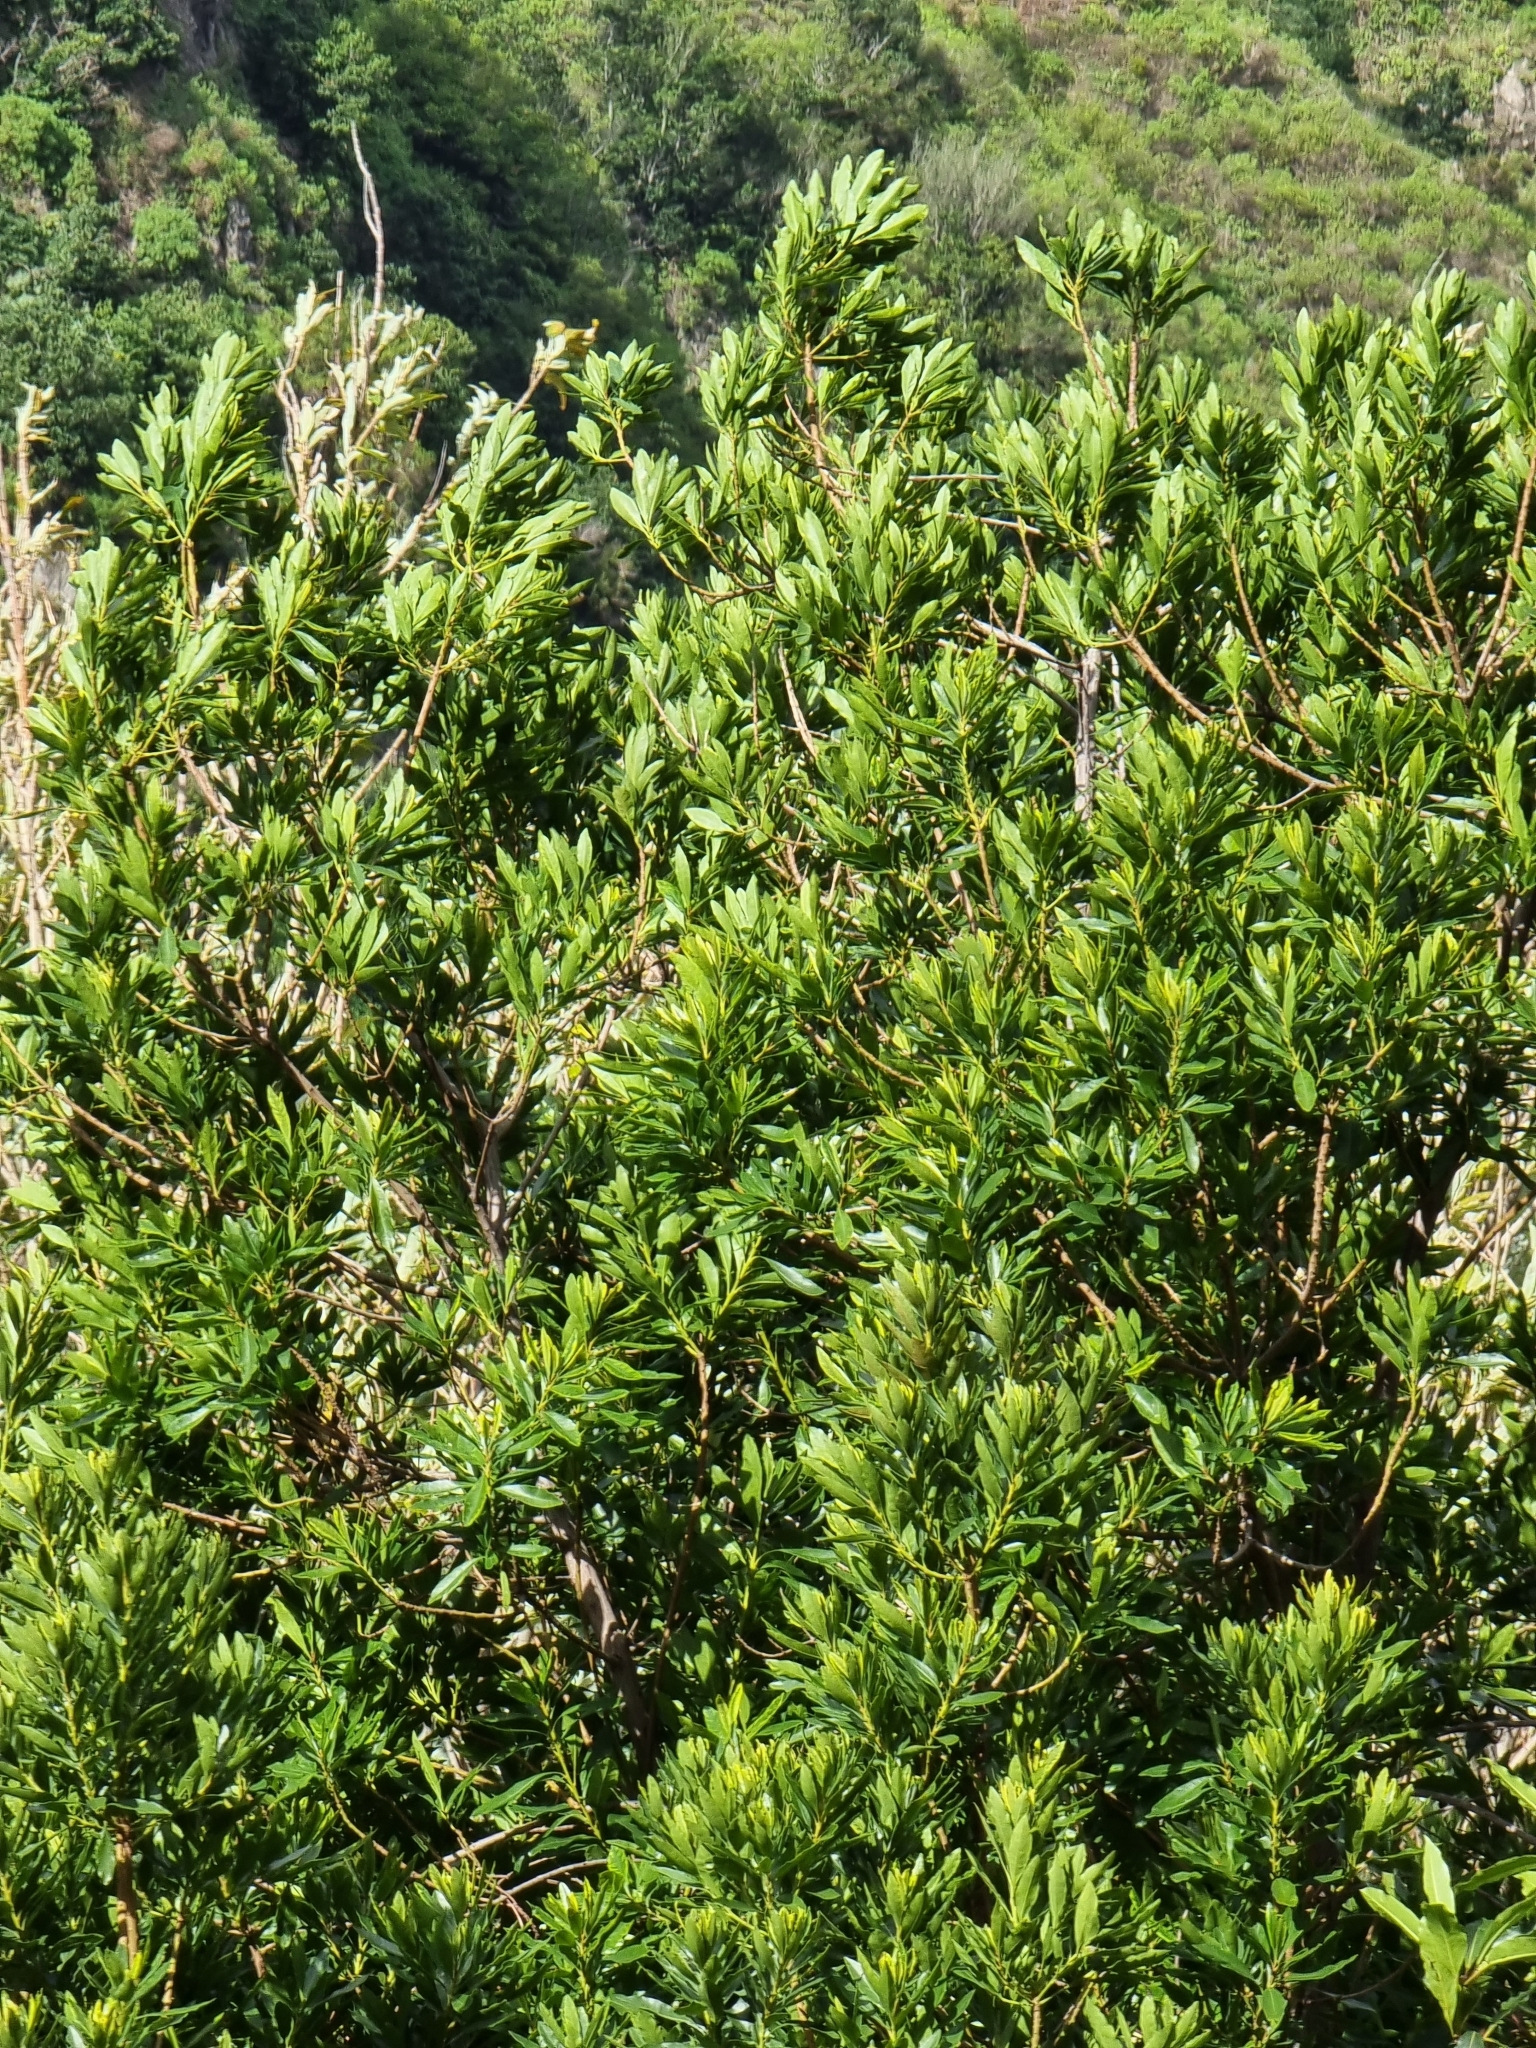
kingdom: Plantae
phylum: Tracheophyta
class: Magnoliopsida
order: Fagales
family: Myricaceae
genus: Morella
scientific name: Morella faya
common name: Firetree
